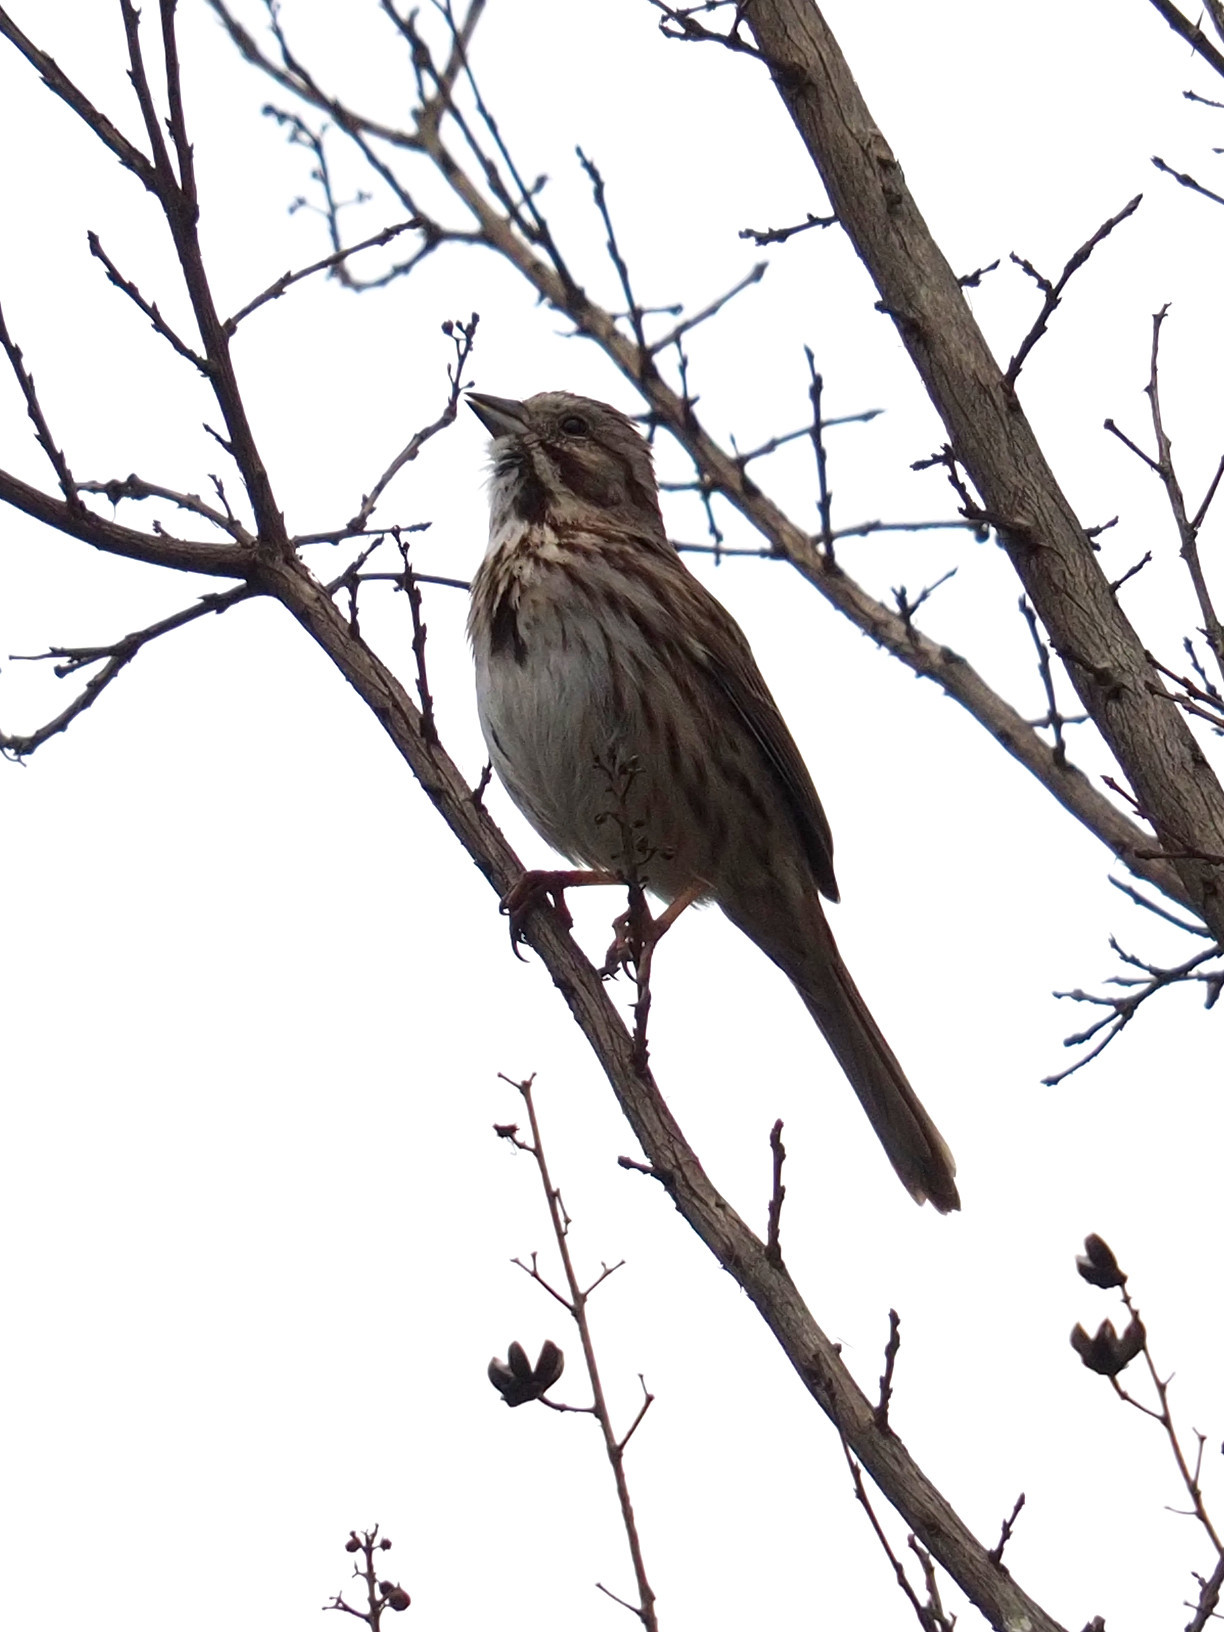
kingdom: Animalia
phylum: Chordata
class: Aves
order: Passeriformes
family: Passerellidae
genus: Melospiza
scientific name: Melospiza melodia
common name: Song sparrow
